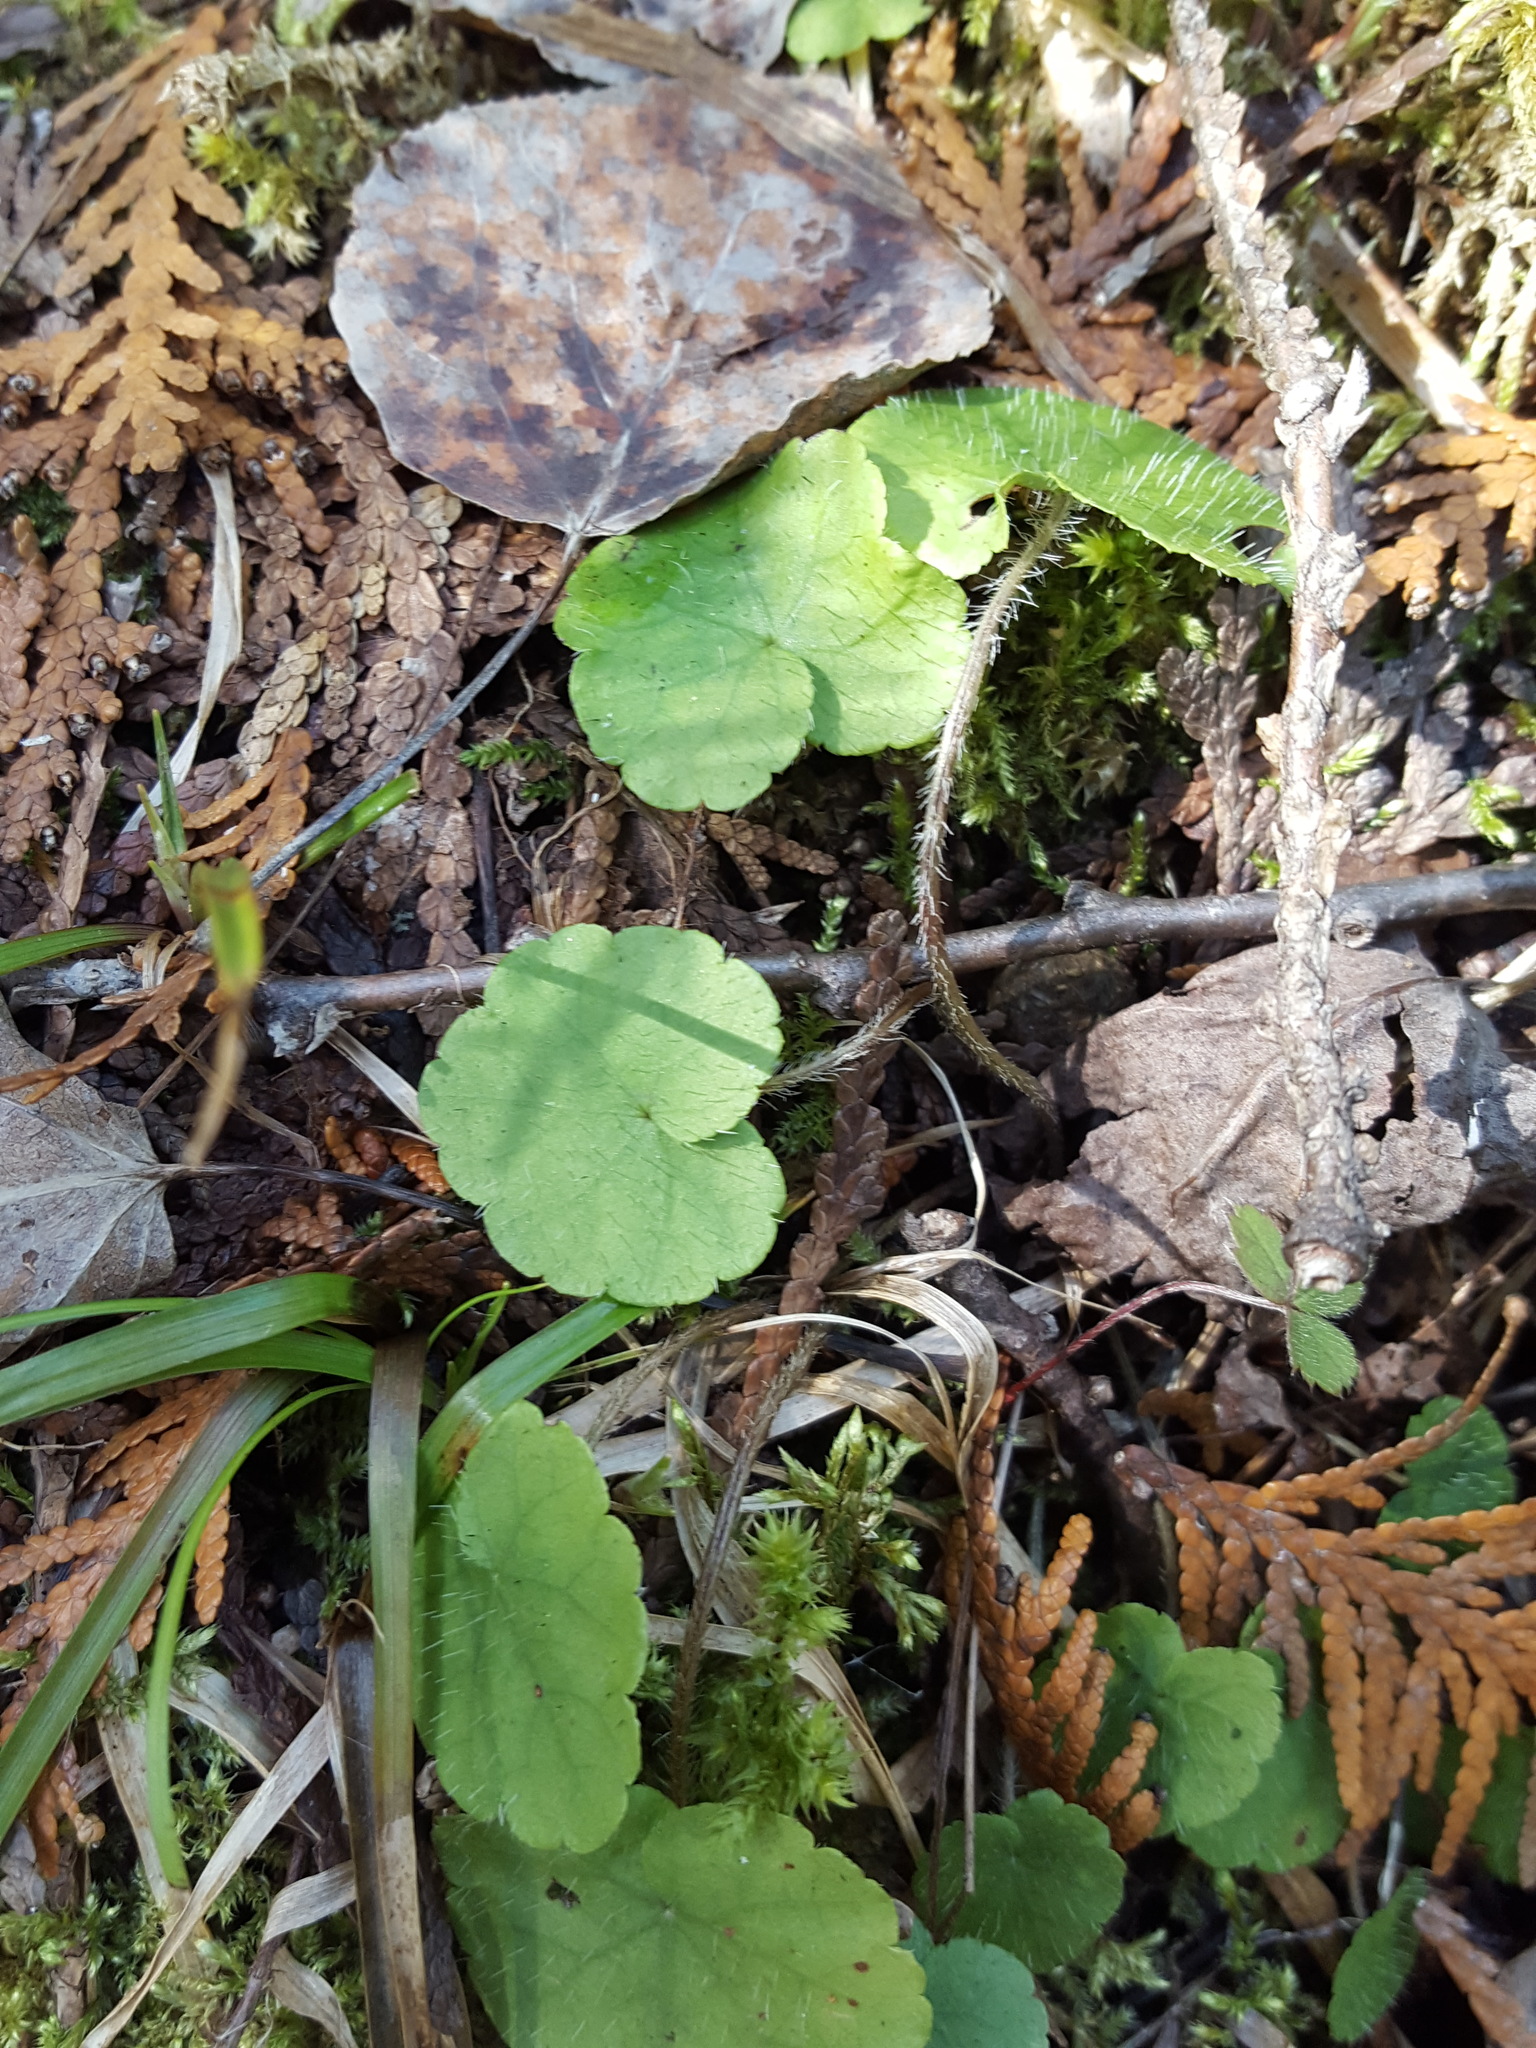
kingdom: Plantae
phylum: Tracheophyta
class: Magnoliopsida
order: Saxifragales
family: Saxifragaceae
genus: Mitella
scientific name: Mitella nuda
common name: Bare-stemmed bishop's-cap
